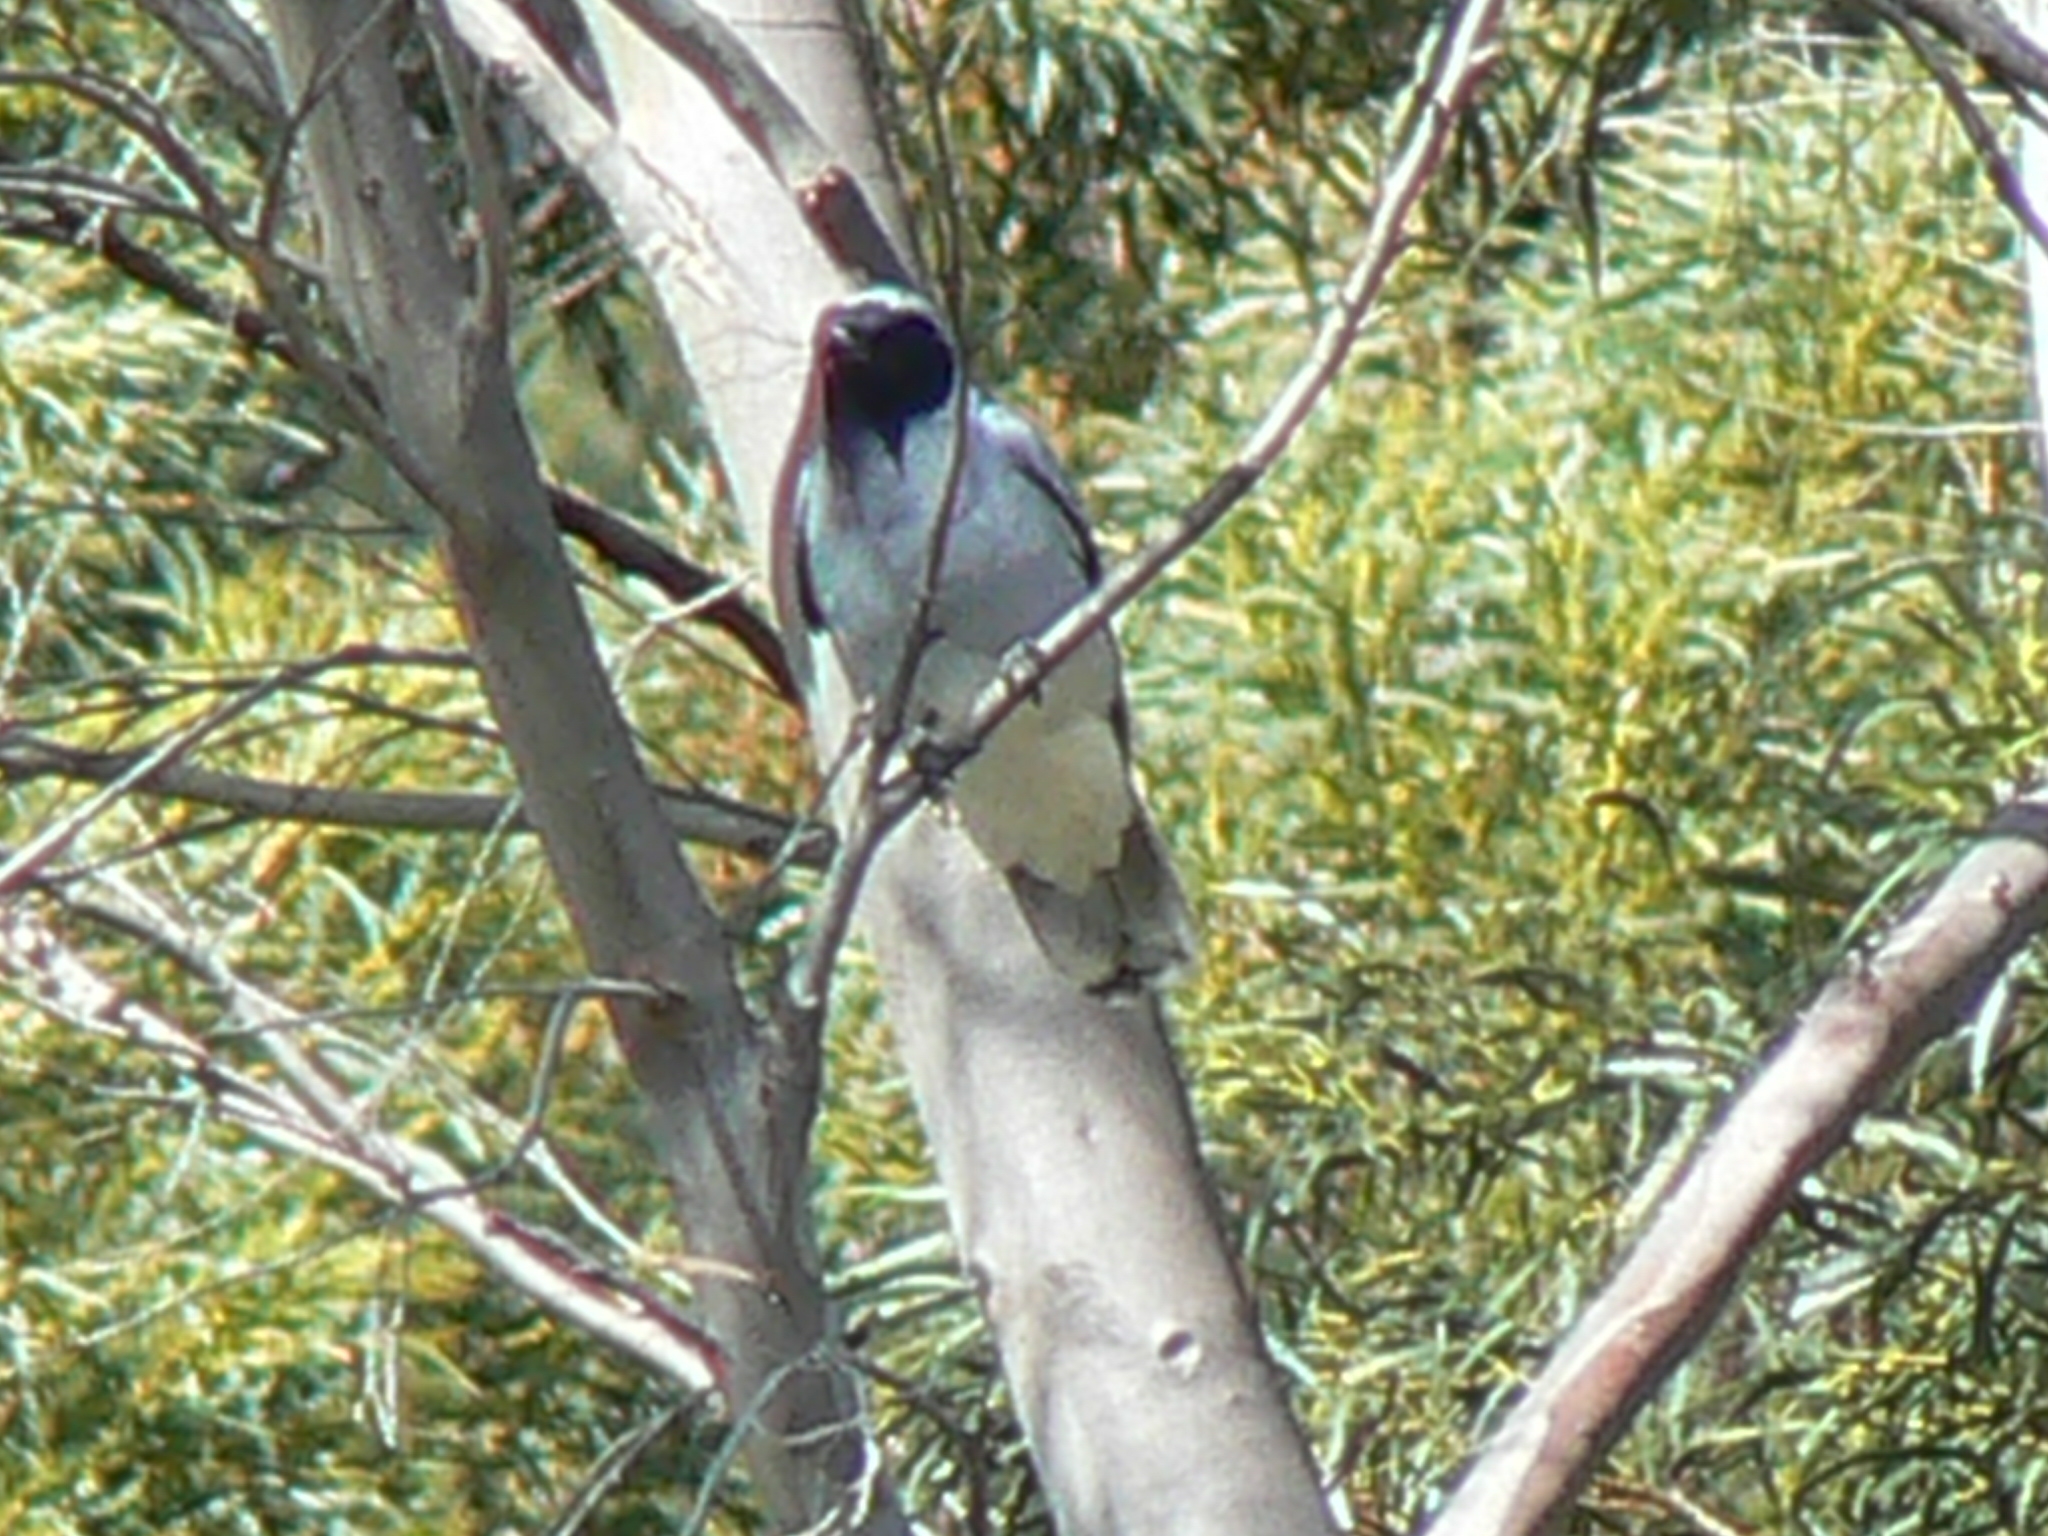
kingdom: Animalia
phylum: Chordata
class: Aves
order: Passeriformes
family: Campephagidae
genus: Coracina
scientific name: Coracina novaehollandiae
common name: Black-faced cuckooshrike
